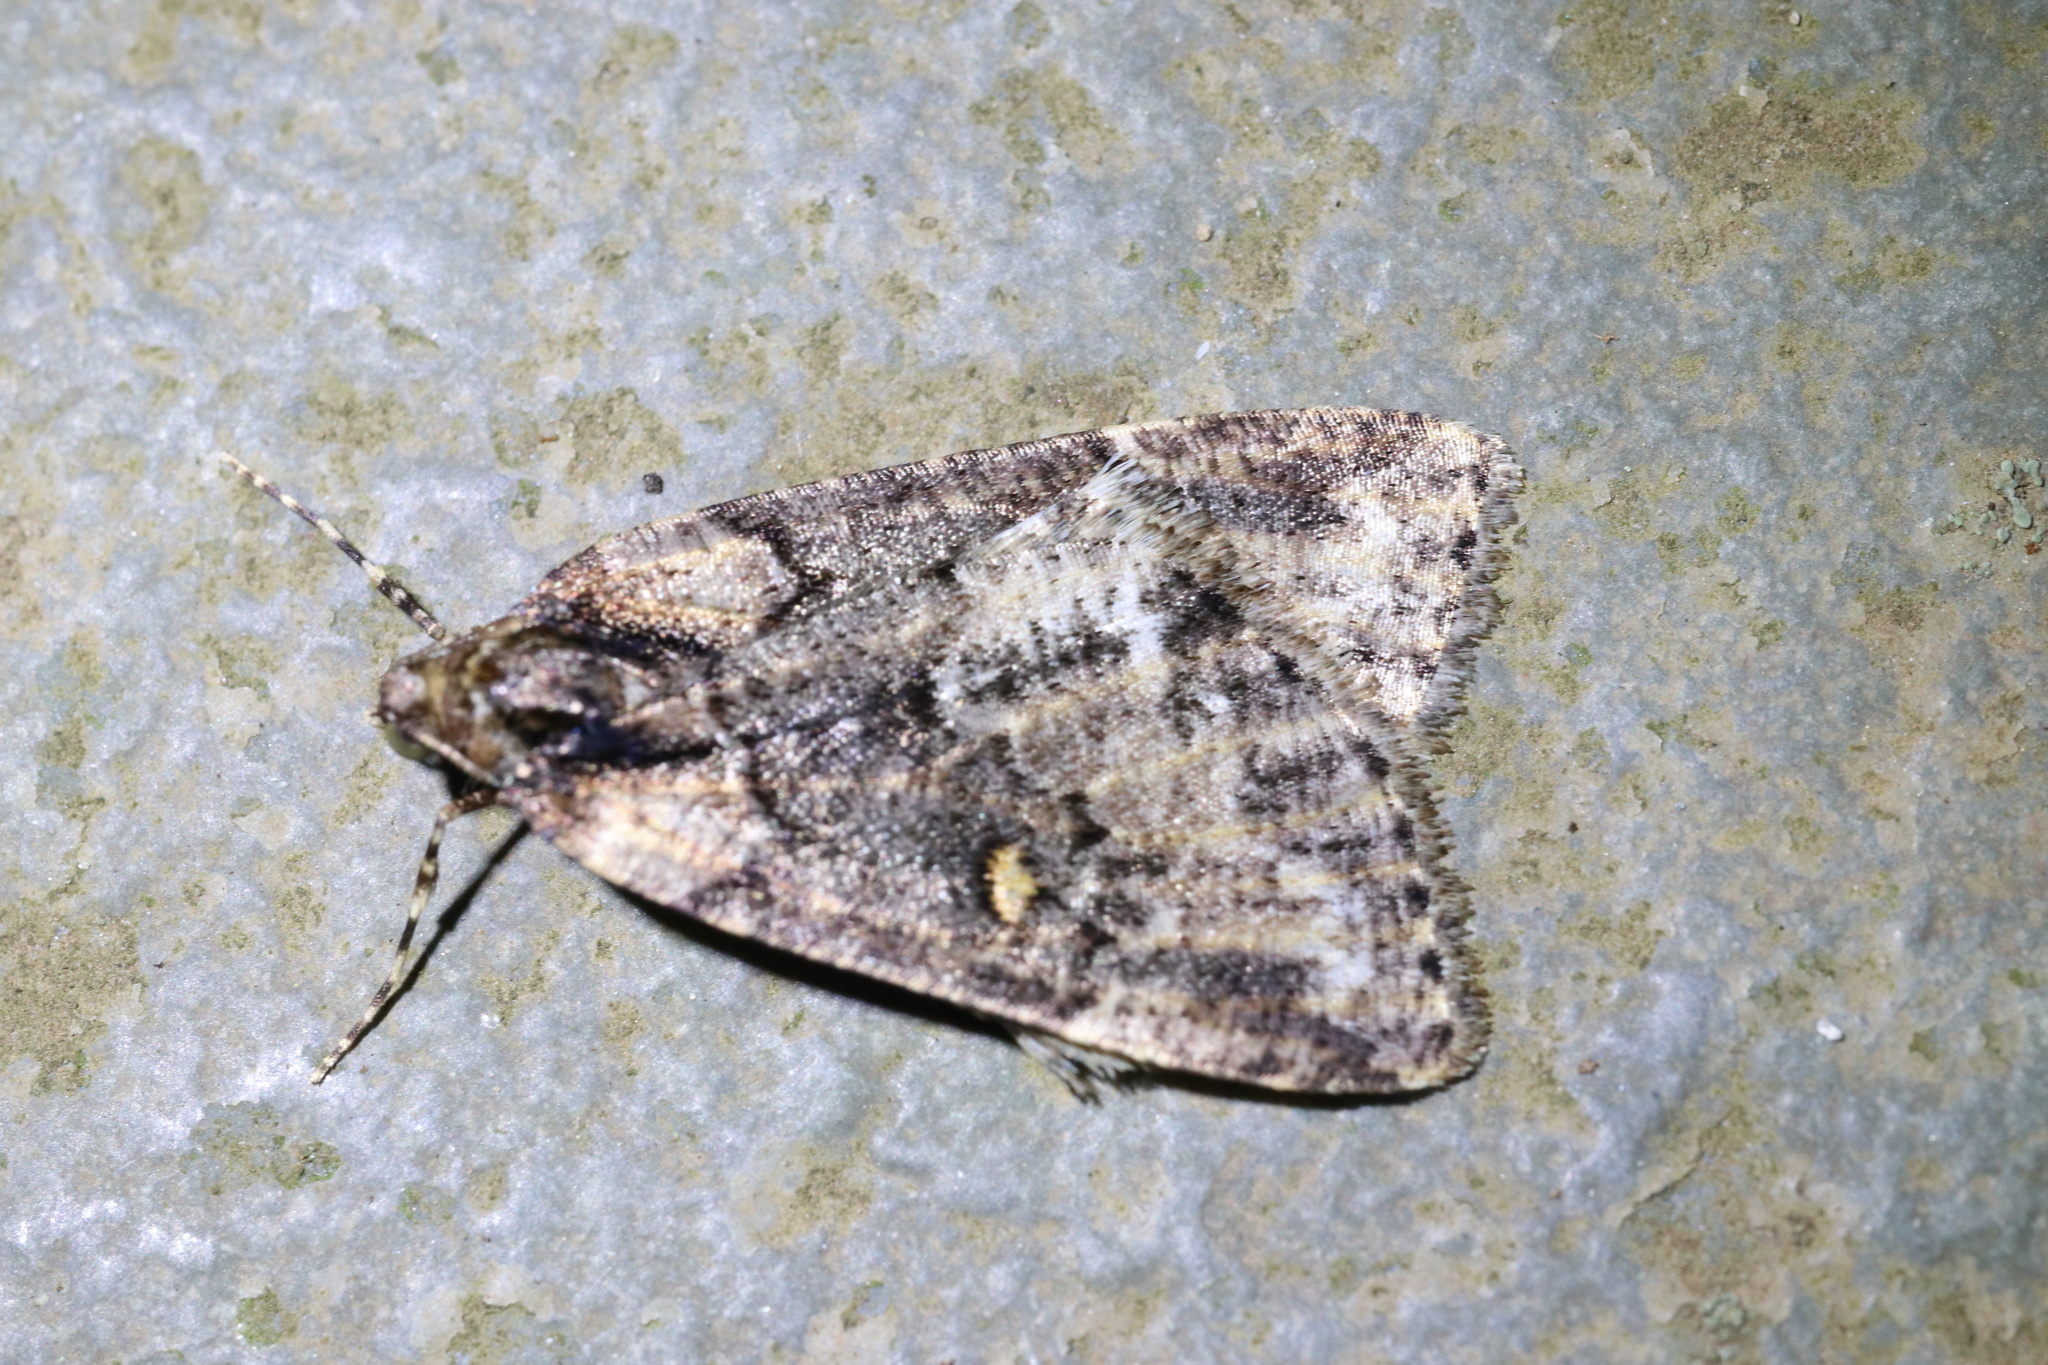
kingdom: Animalia
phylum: Arthropoda
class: Insecta
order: Lepidoptera
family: Geometridae
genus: Lacaria
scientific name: Lacaria picuncharia
